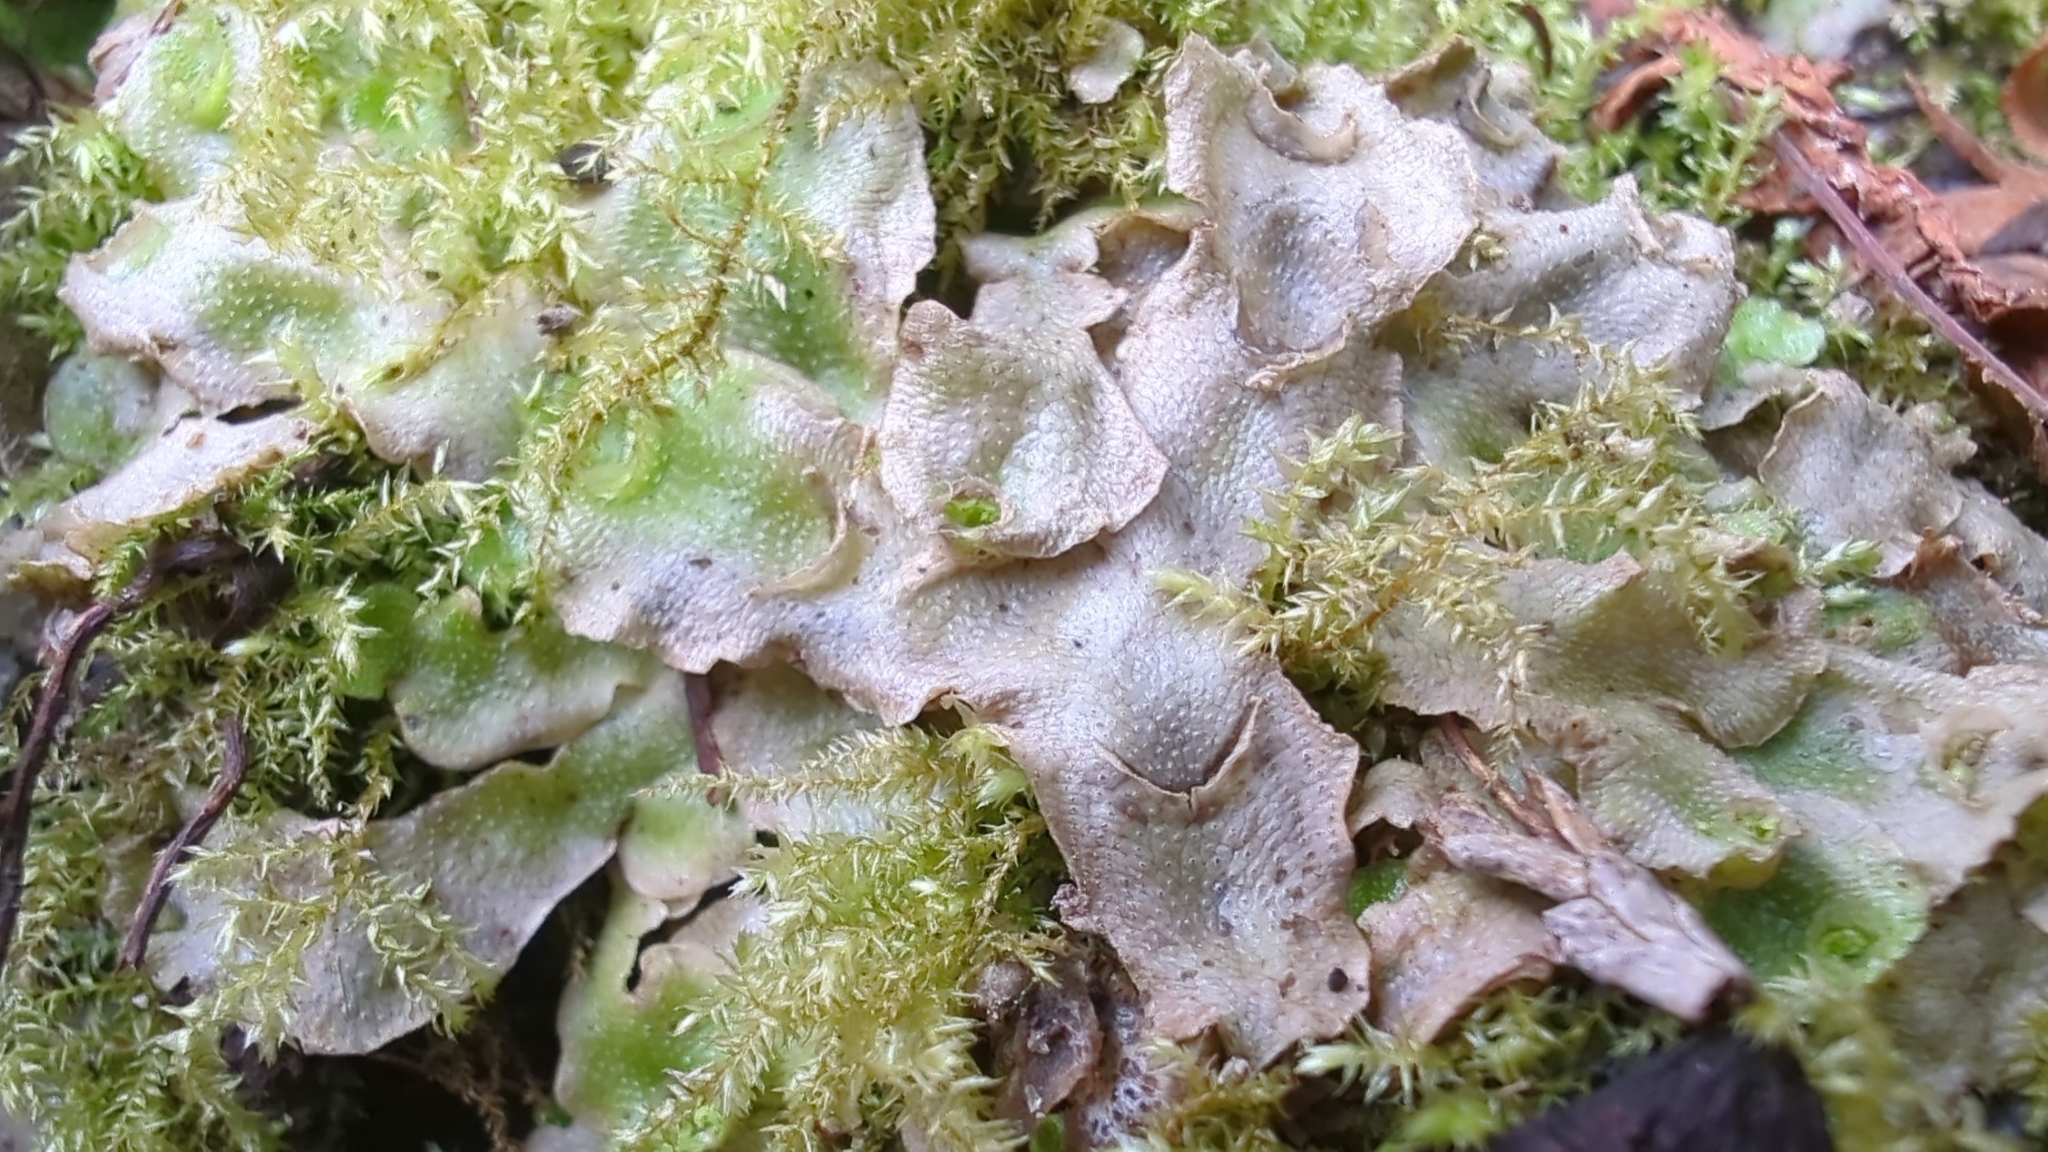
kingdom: Plantae
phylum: Marchantiophyta
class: Marchantiopsida
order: Lunulariales
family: Lunulariaceae
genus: Lunularia
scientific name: Lunularia cruciata
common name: Crescent-cup liverwort
